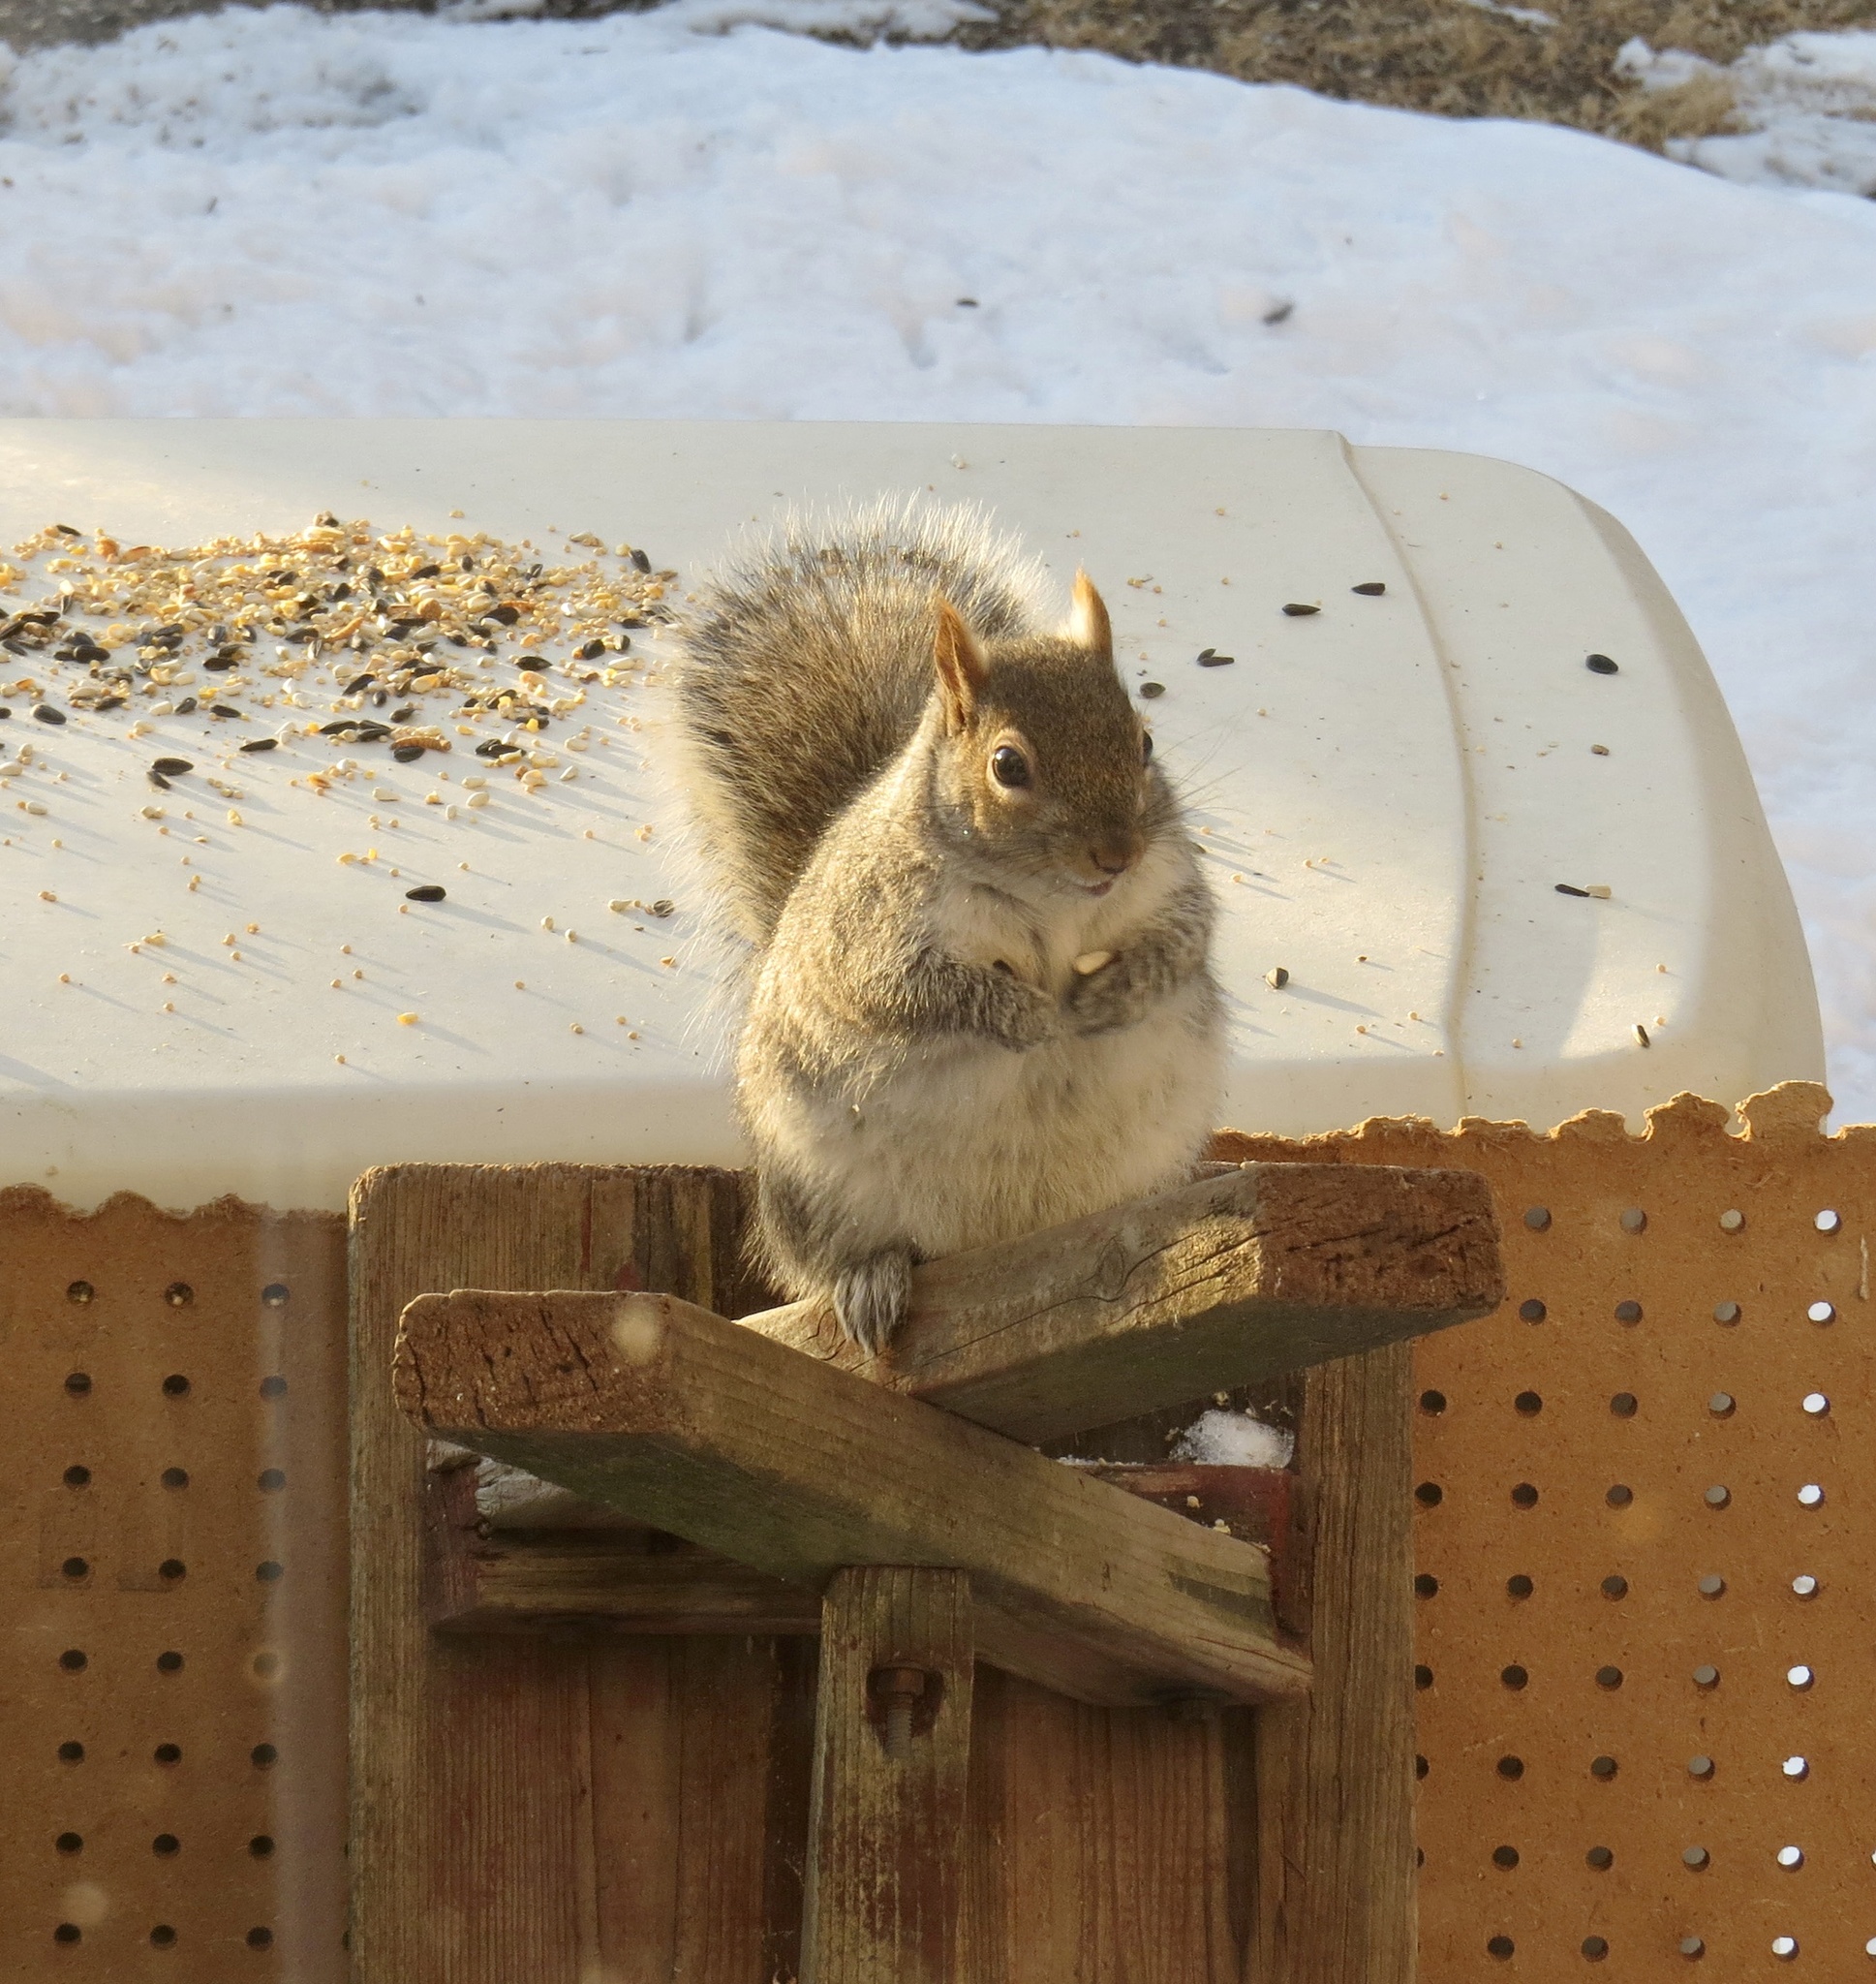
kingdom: Animalia
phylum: Chordata
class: Mammalia
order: Rodentia
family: Sciuridae
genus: Sciurus
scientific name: Sciurus carolinensis
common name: Eastern gray squirrel
